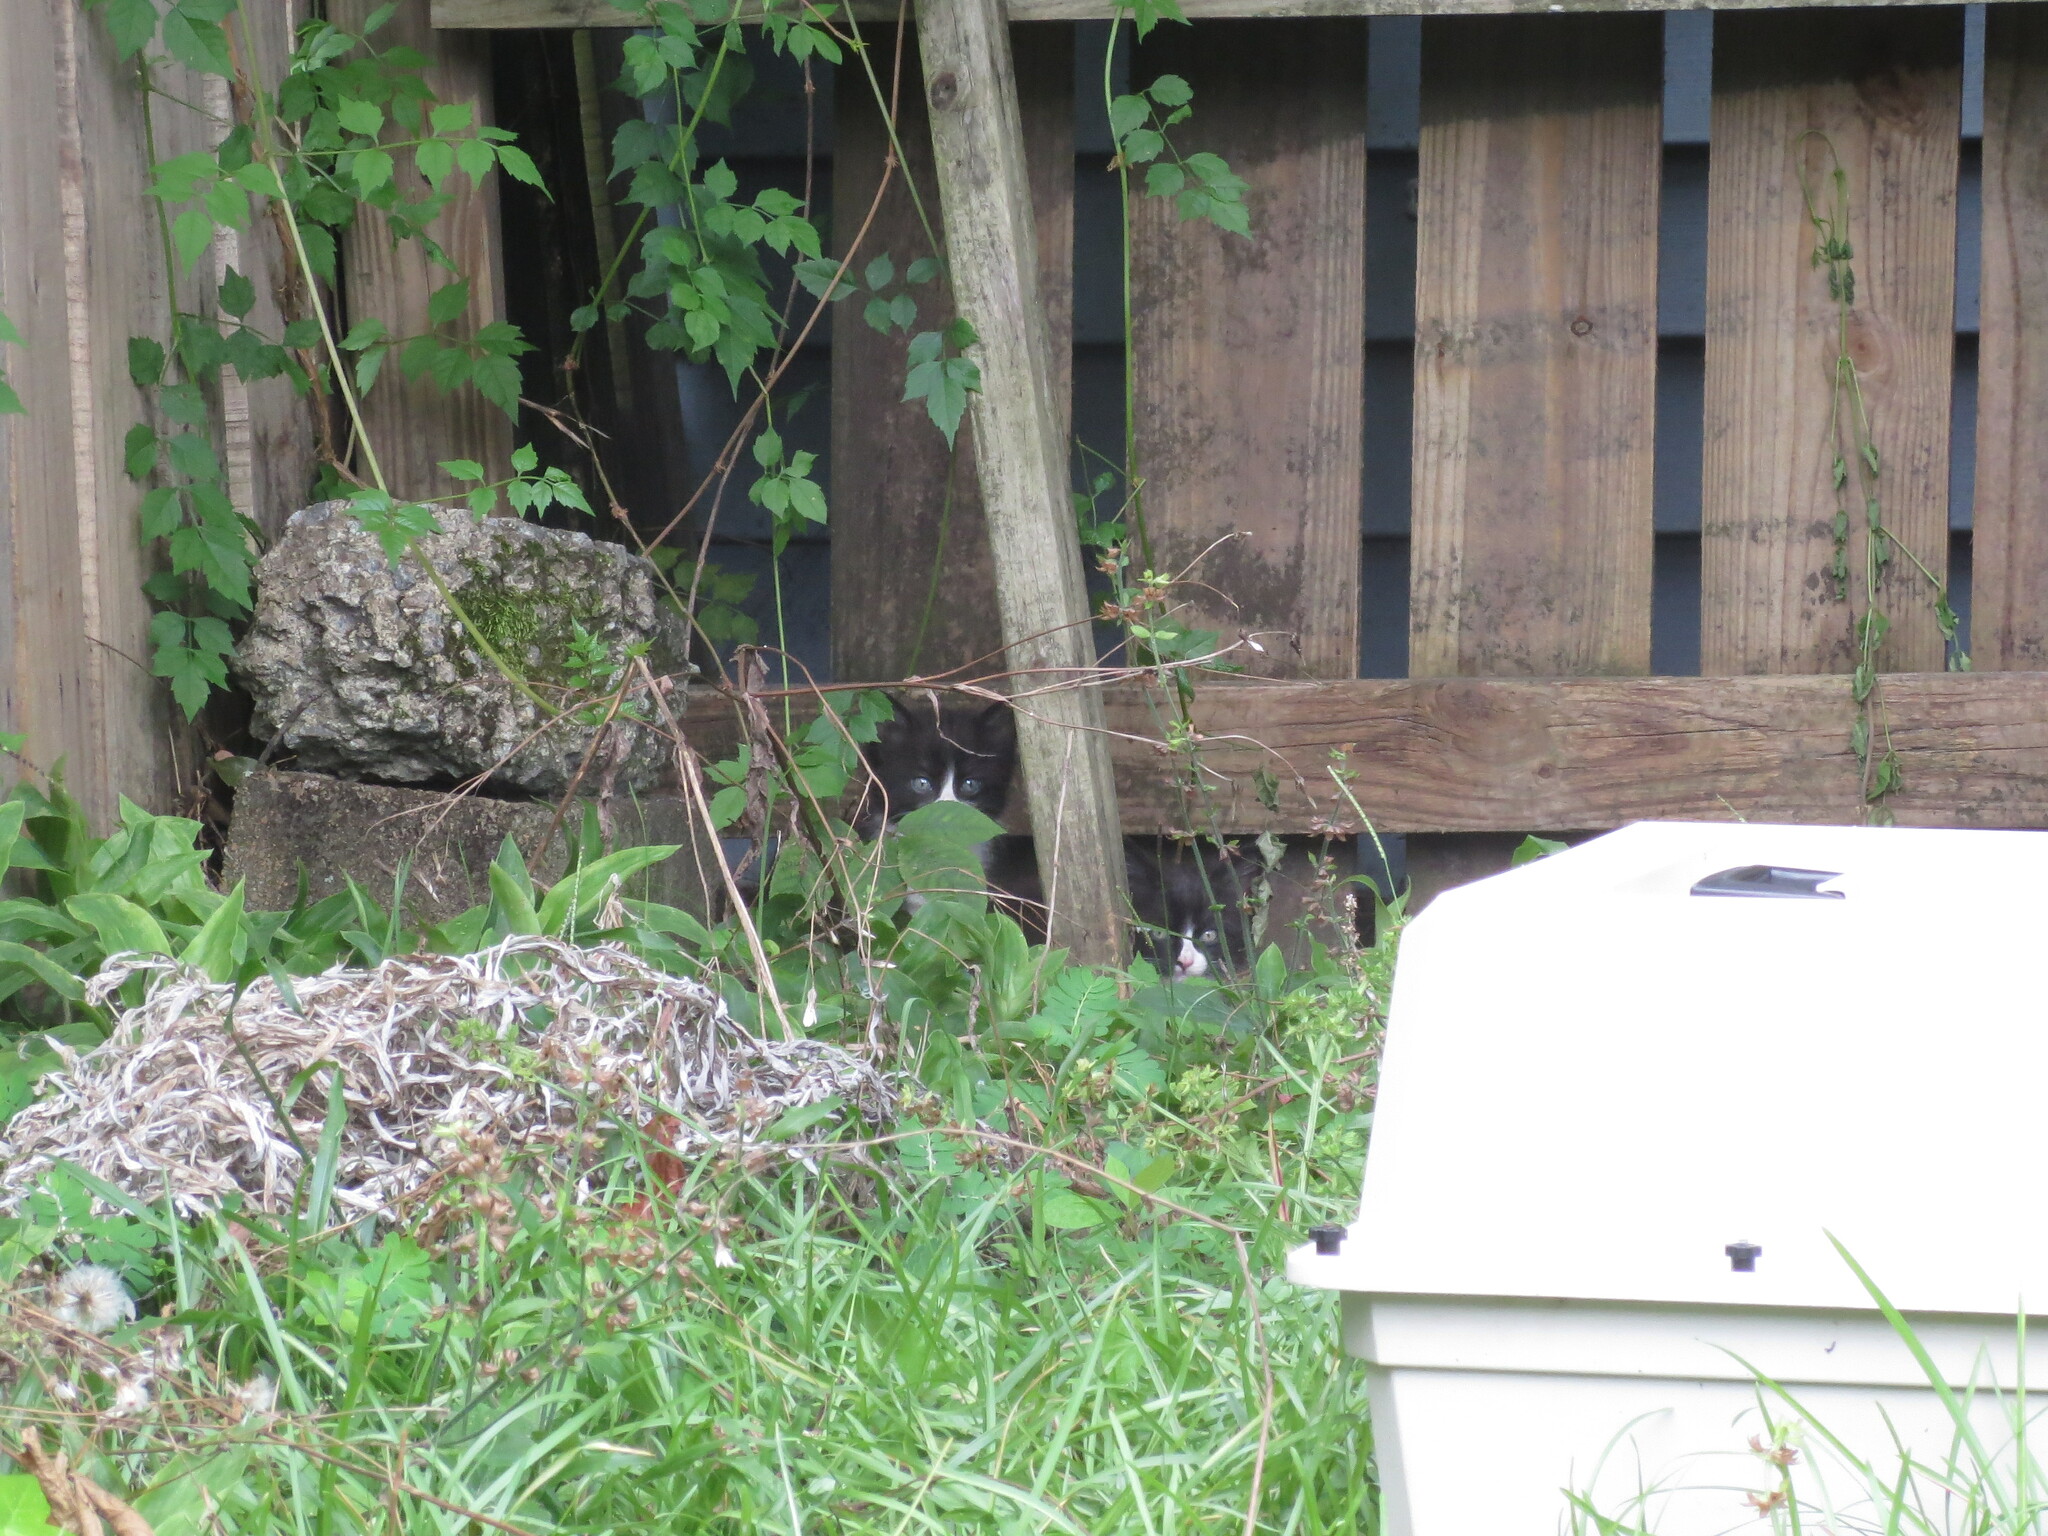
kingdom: Animalia
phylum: Chordata
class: Mammalia
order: Carnivora
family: Felidae
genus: Felis
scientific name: Felis catus
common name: Domestic cat
